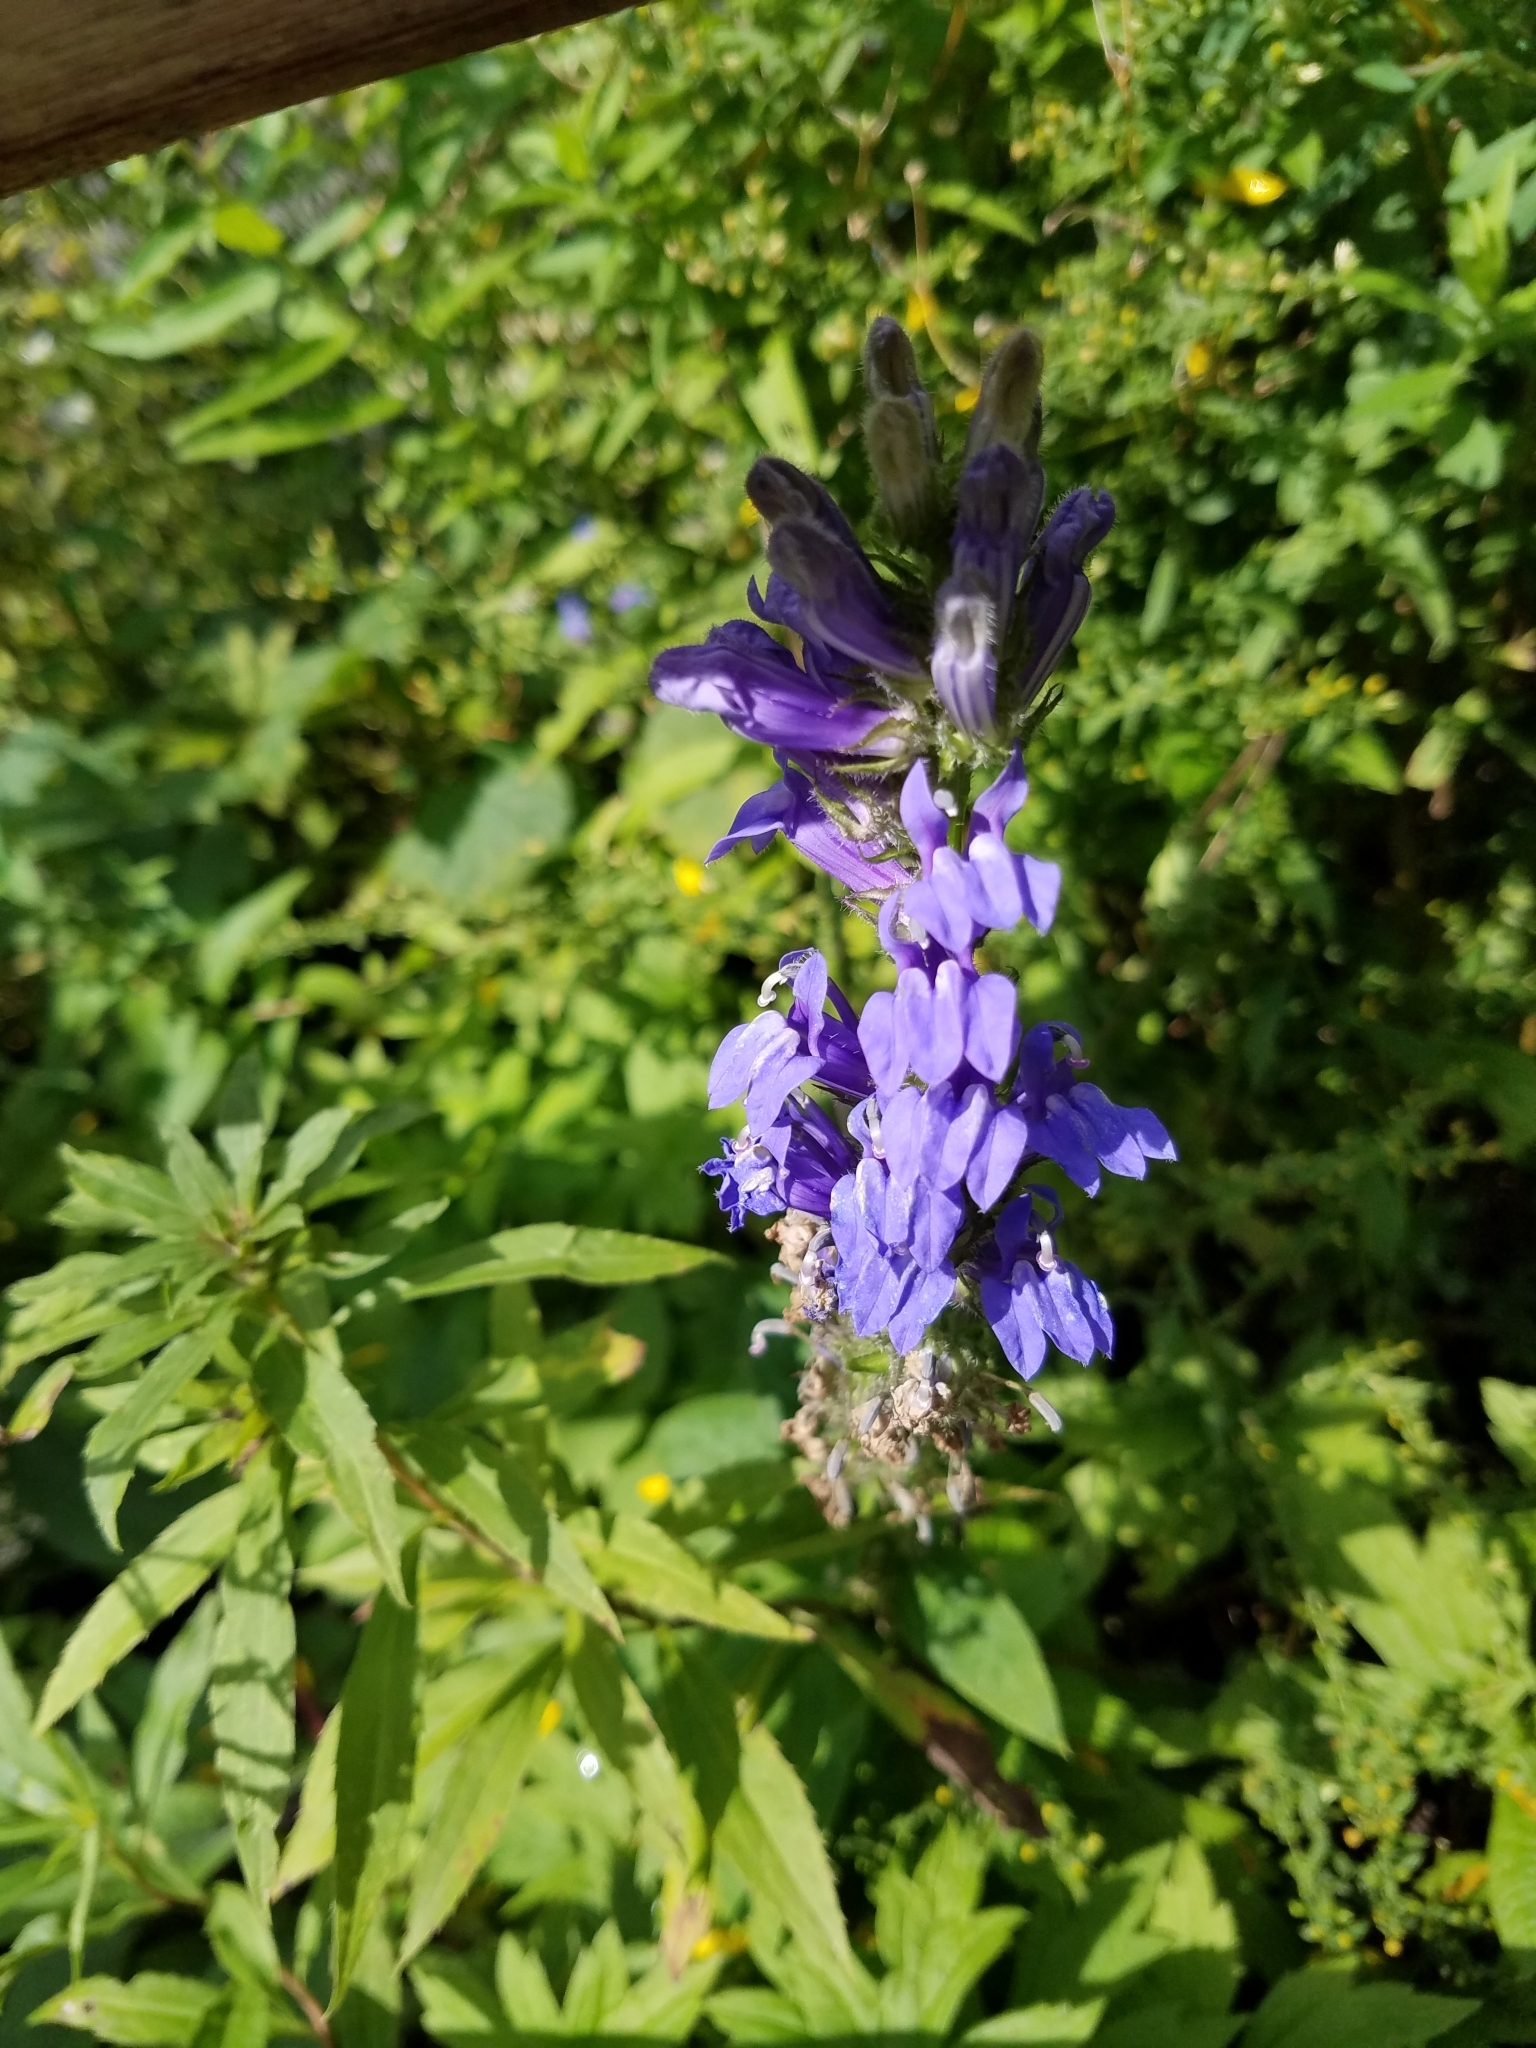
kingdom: Plantae
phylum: Tracheophyta
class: Magnoliopsida
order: Asterales
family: Campanulaceae
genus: Lobelia
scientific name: Lobelia siphilitica
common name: Great lobelia
